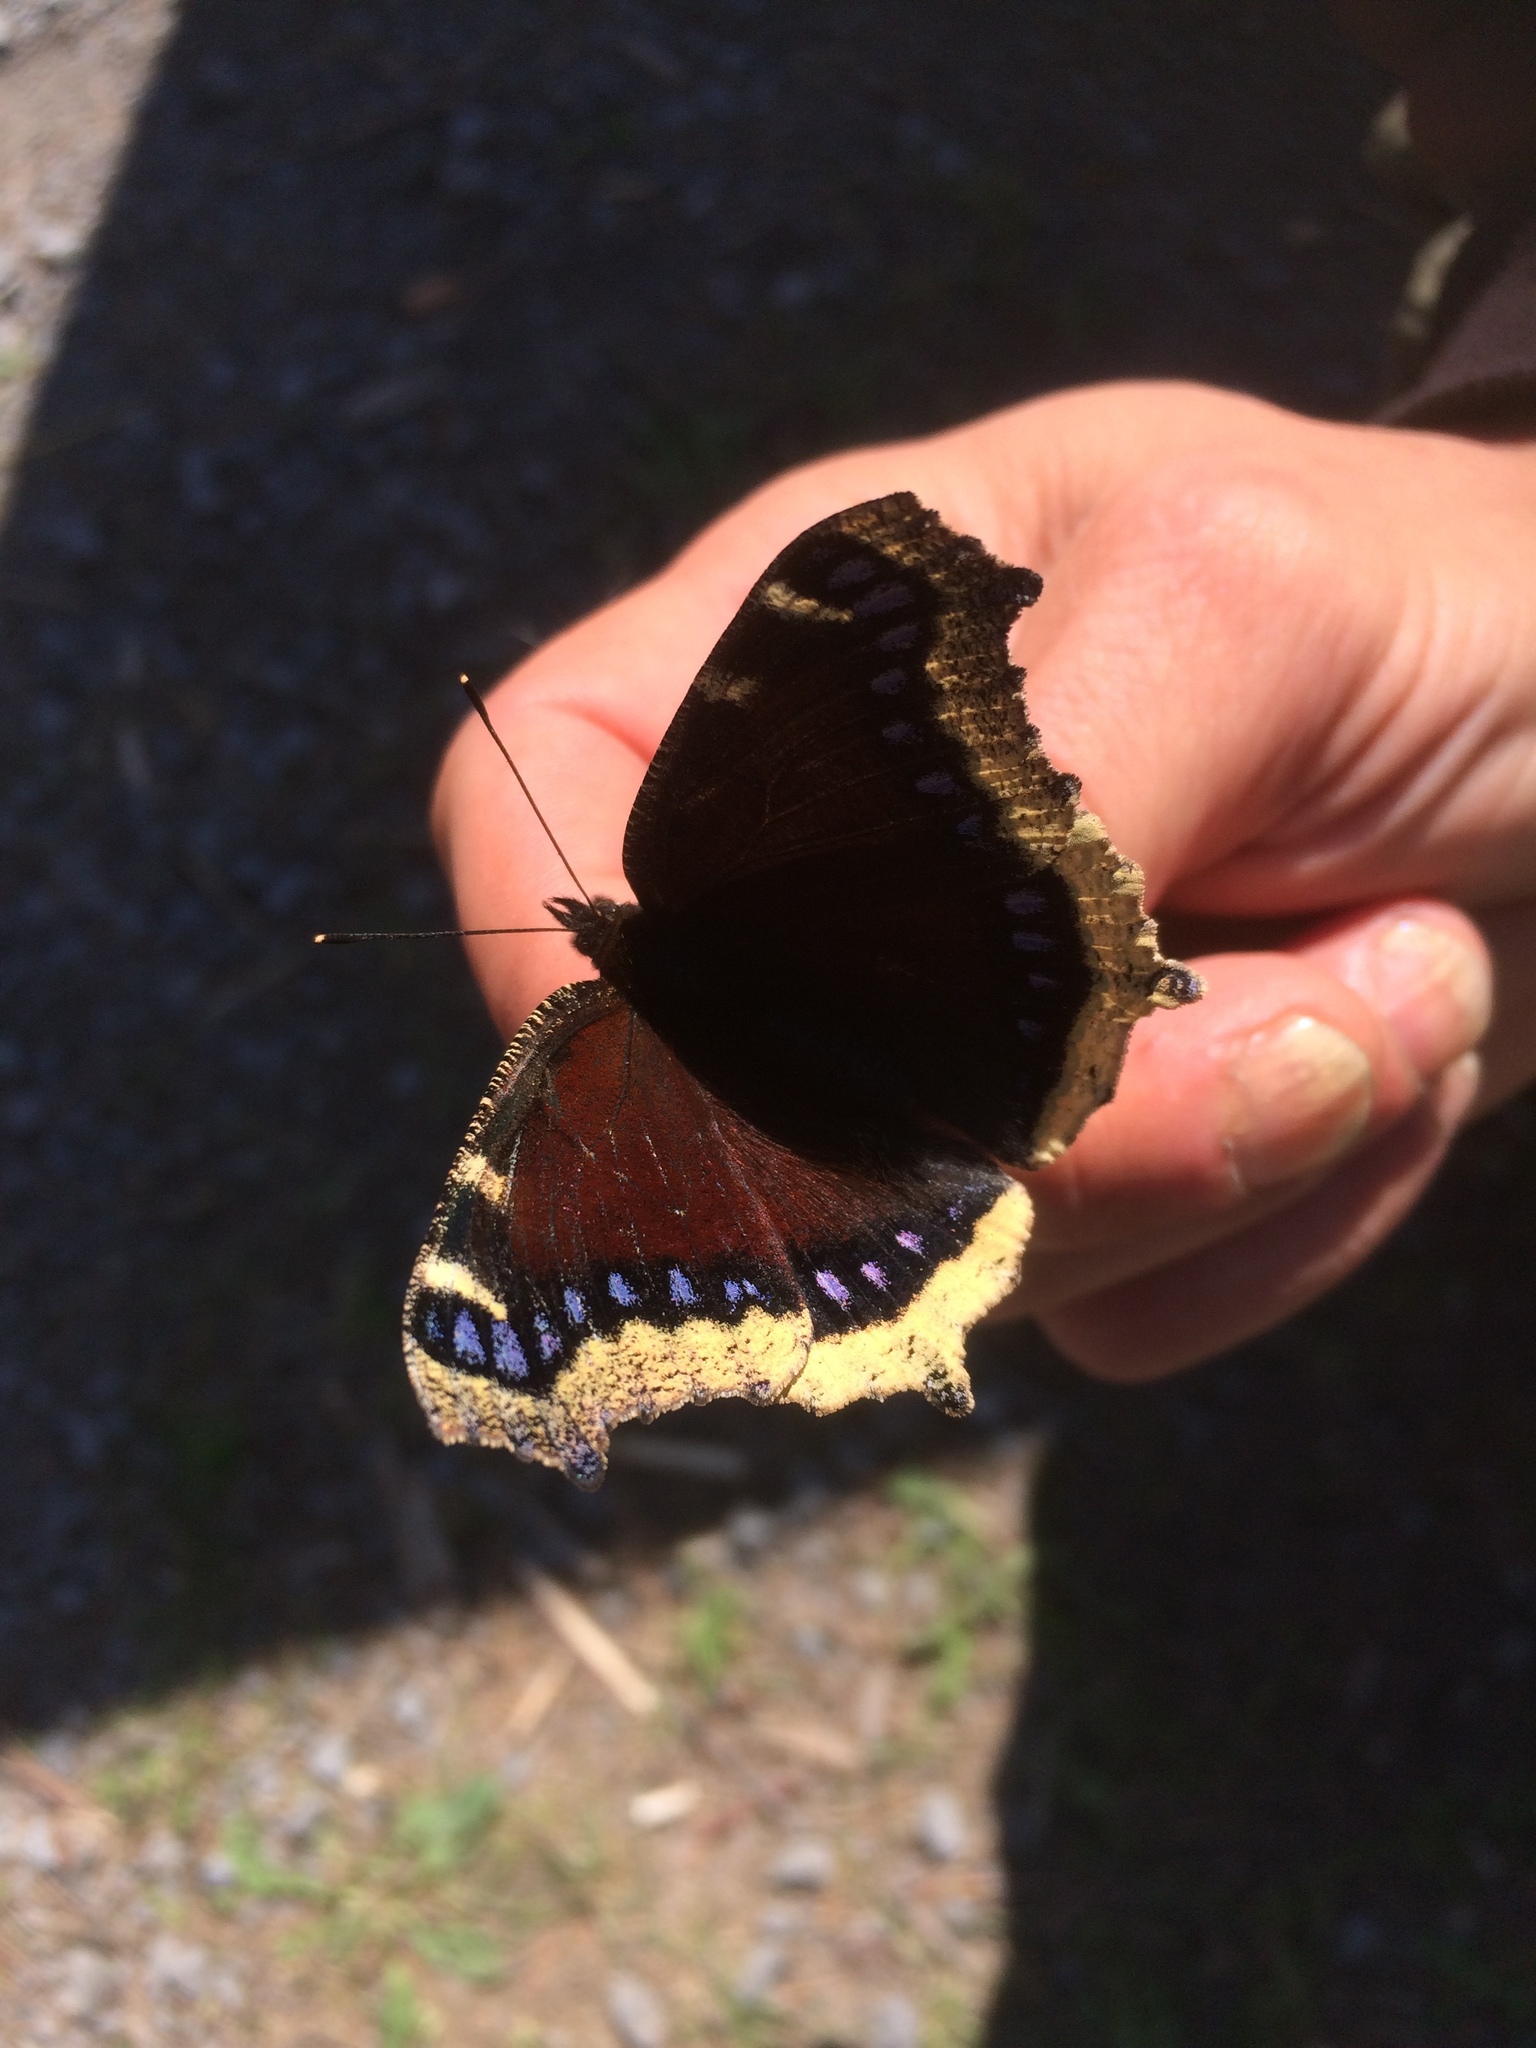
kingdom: Animalia
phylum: Arthropoda
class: Insecta
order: Lepidoptera
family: Nymphalidae
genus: Nymphalis
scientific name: Nymphalis antiopa
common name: Camberwell beauty
